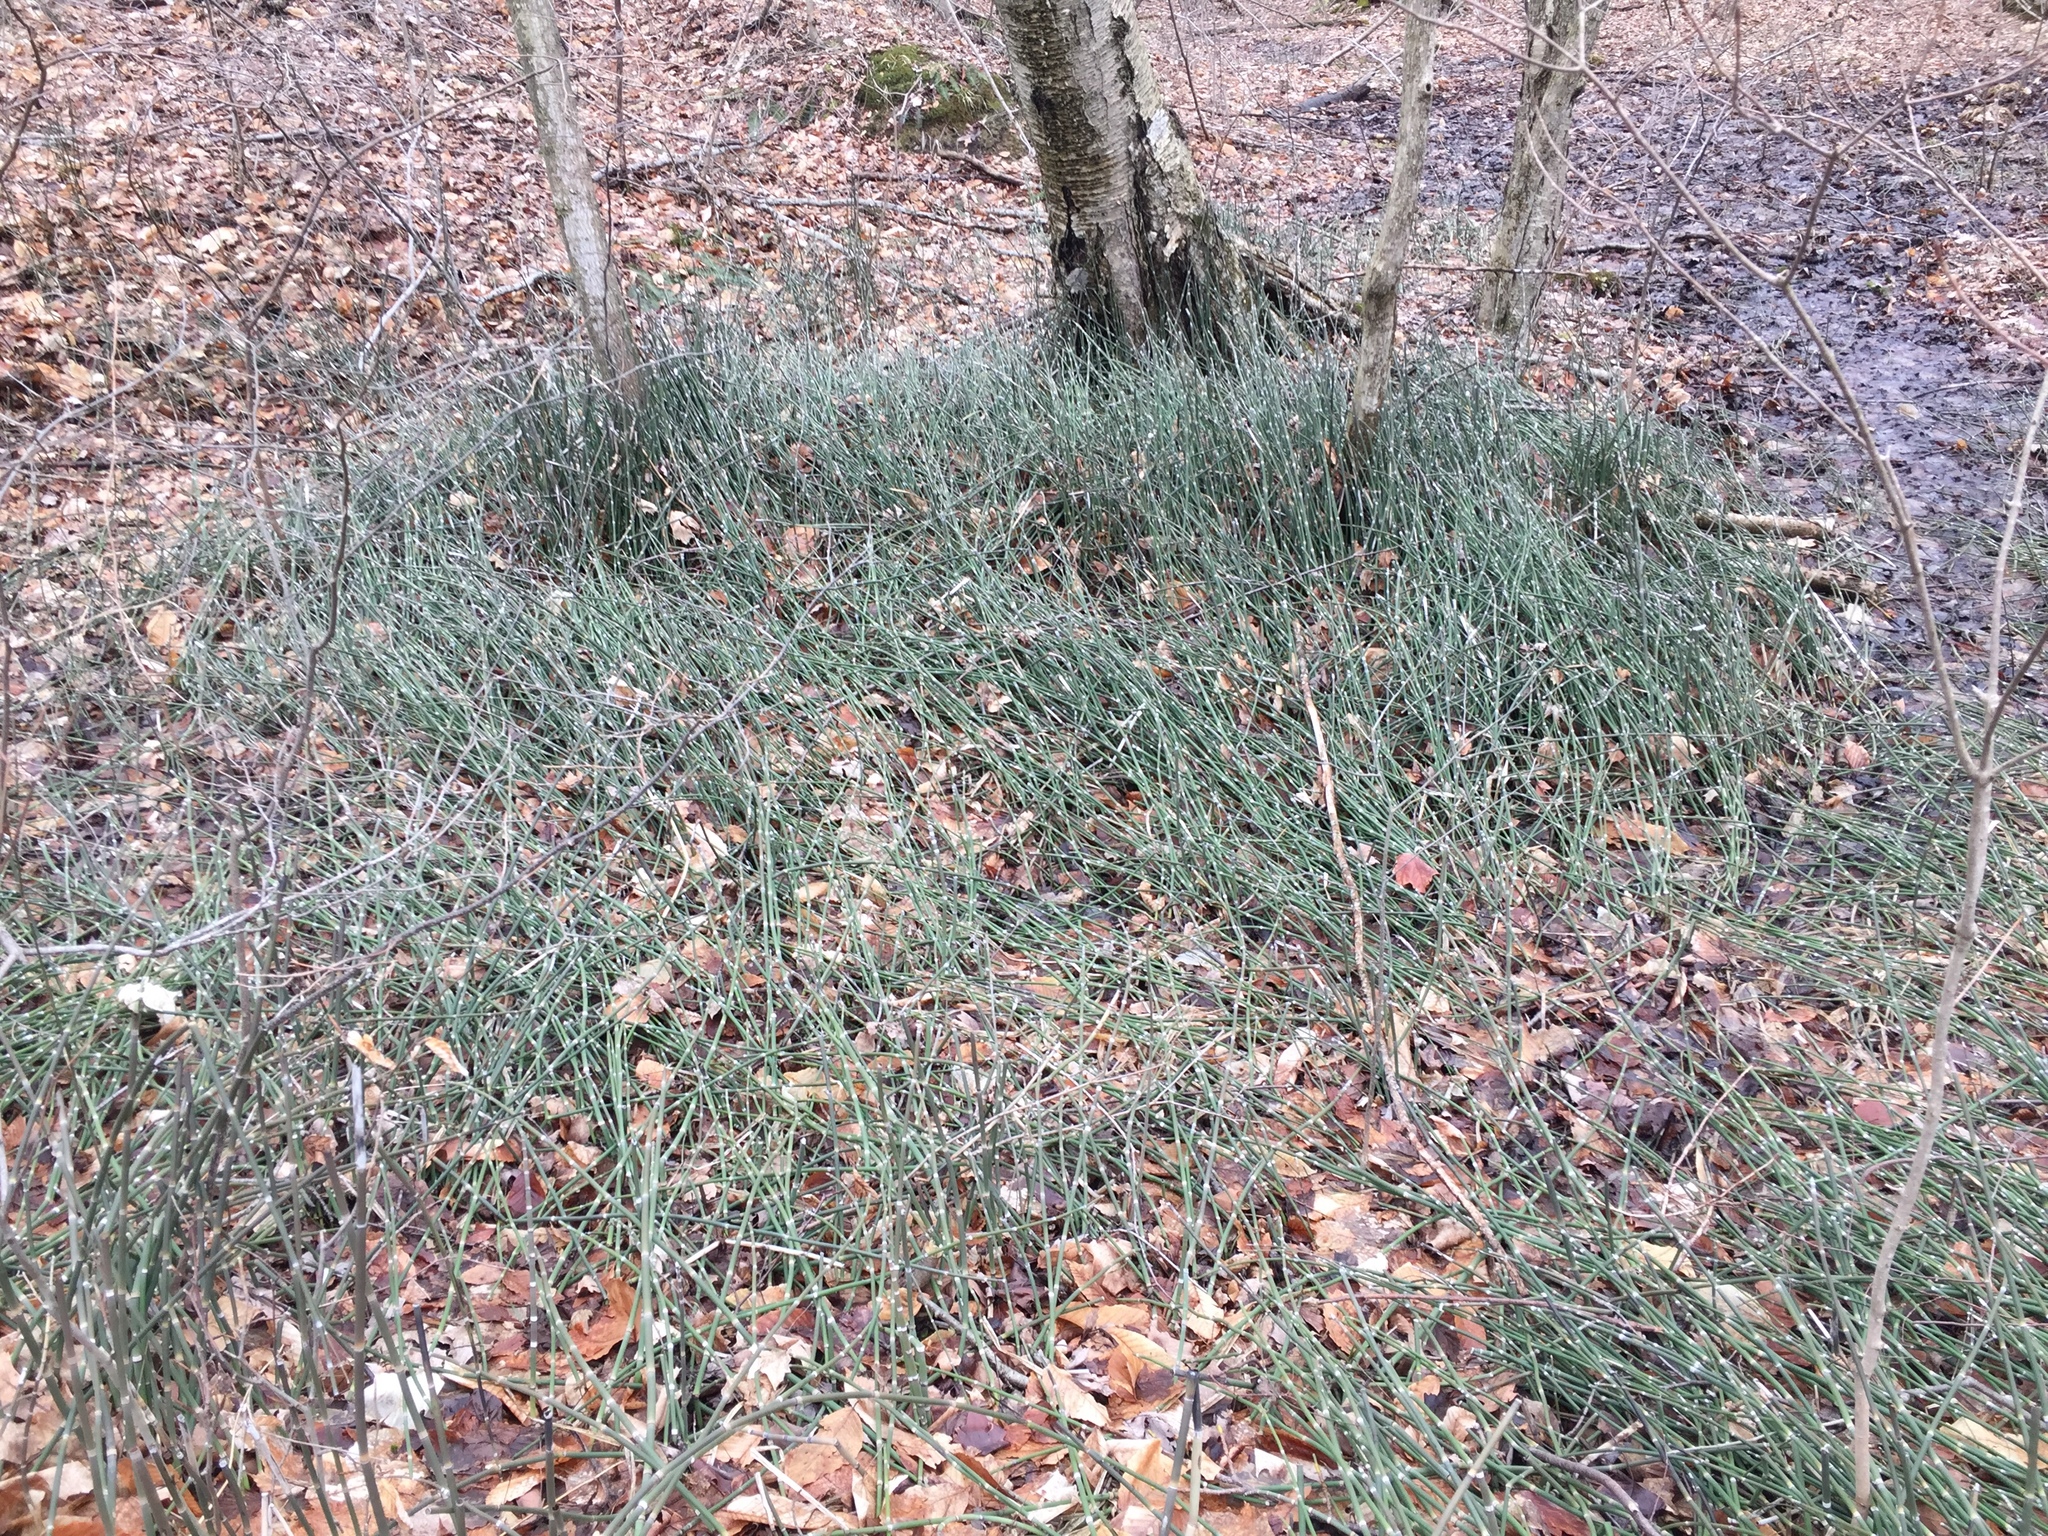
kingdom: Plantae
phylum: Tracheophyta
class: Polypodiopsida
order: Equisetales
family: Equisetaceae
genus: Equisetum
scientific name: Equisetum hyemale
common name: Rough horsetail
